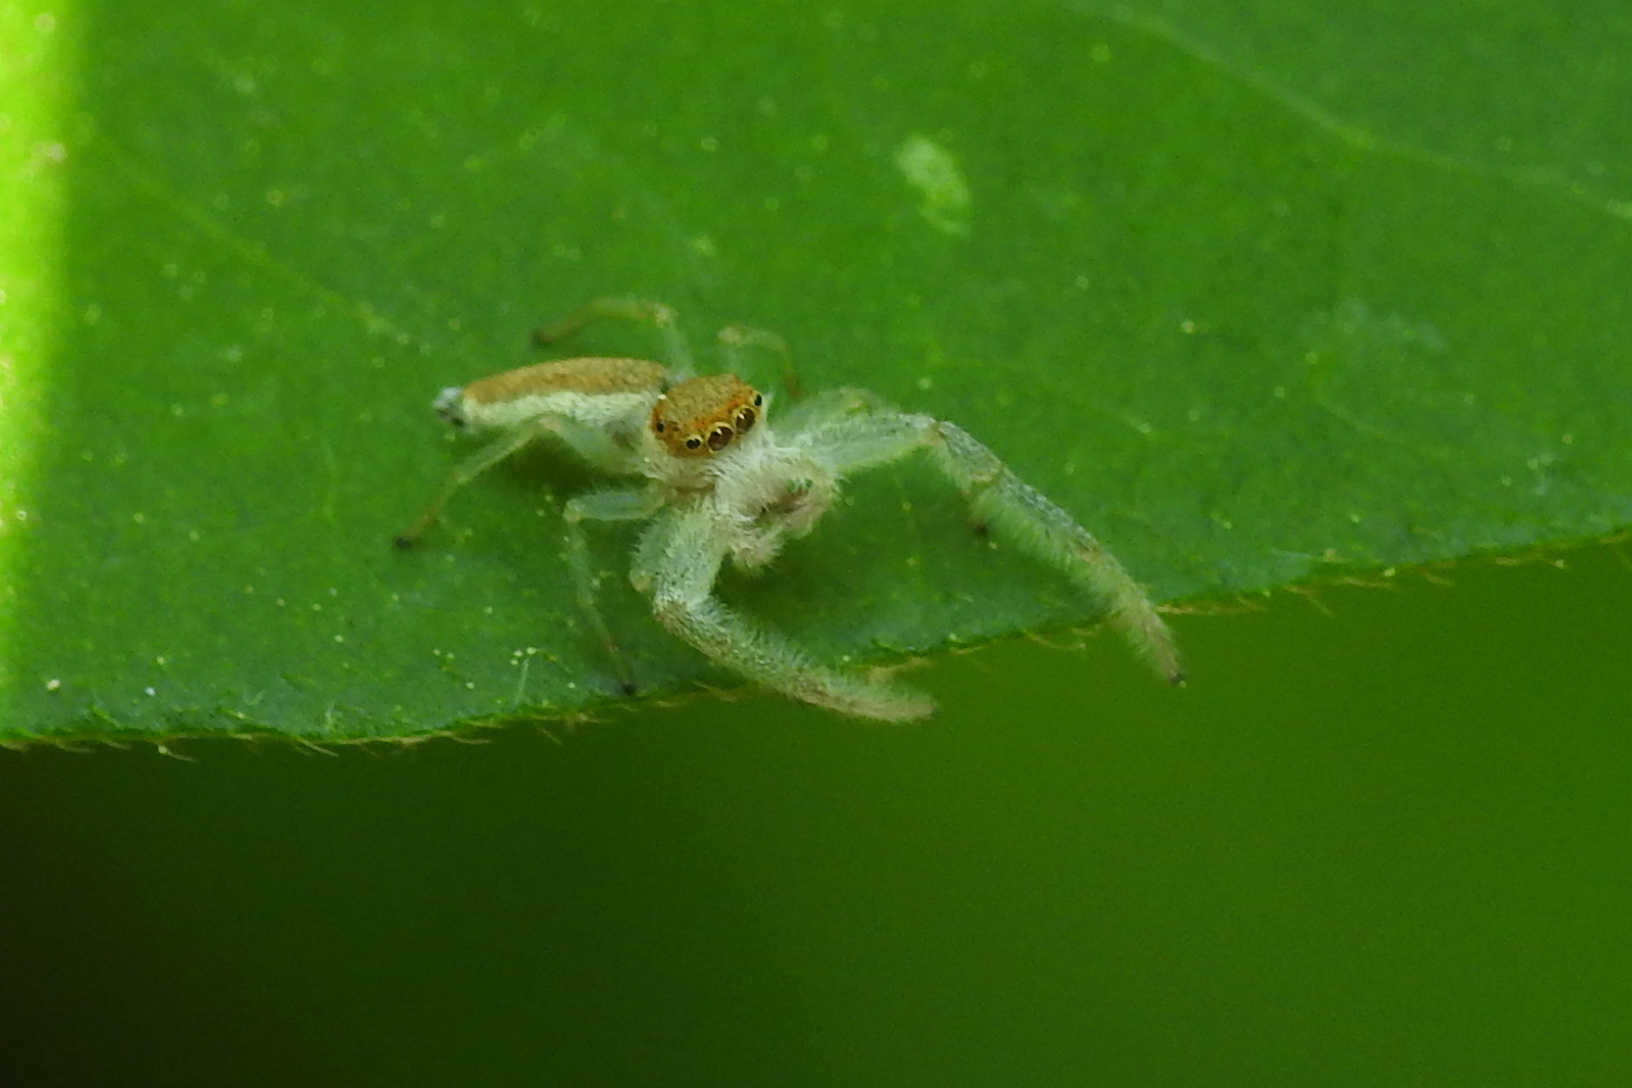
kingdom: Animalia
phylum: Arthropoda
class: Arachnida
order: Araneae
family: Salticidae
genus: Hentzia
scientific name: Hentzia mitrata
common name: White-jawed jumping spider
